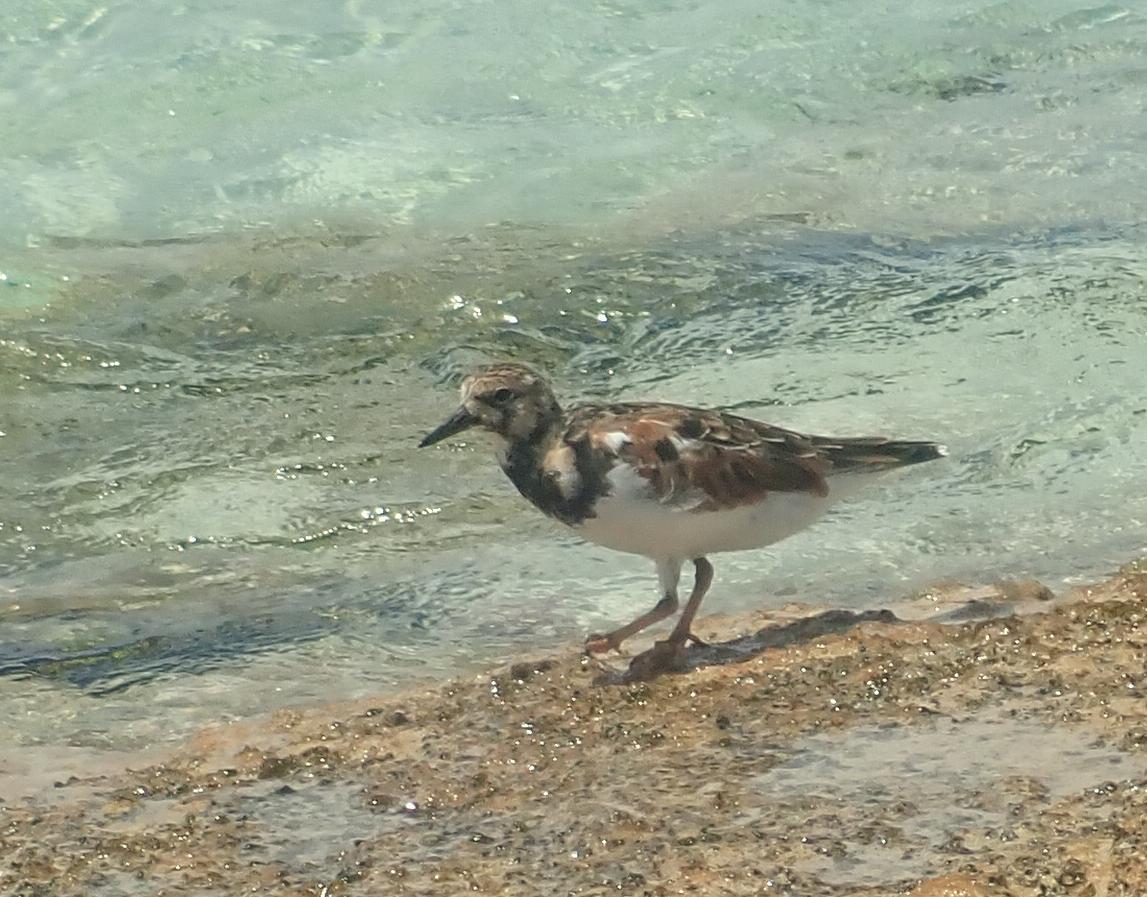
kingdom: Animalia
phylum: Chordata
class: Aves
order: Charadriiformes
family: Scolopacidae
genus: Arenaria
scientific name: Arenaria interpres
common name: Ruddy turnstone
